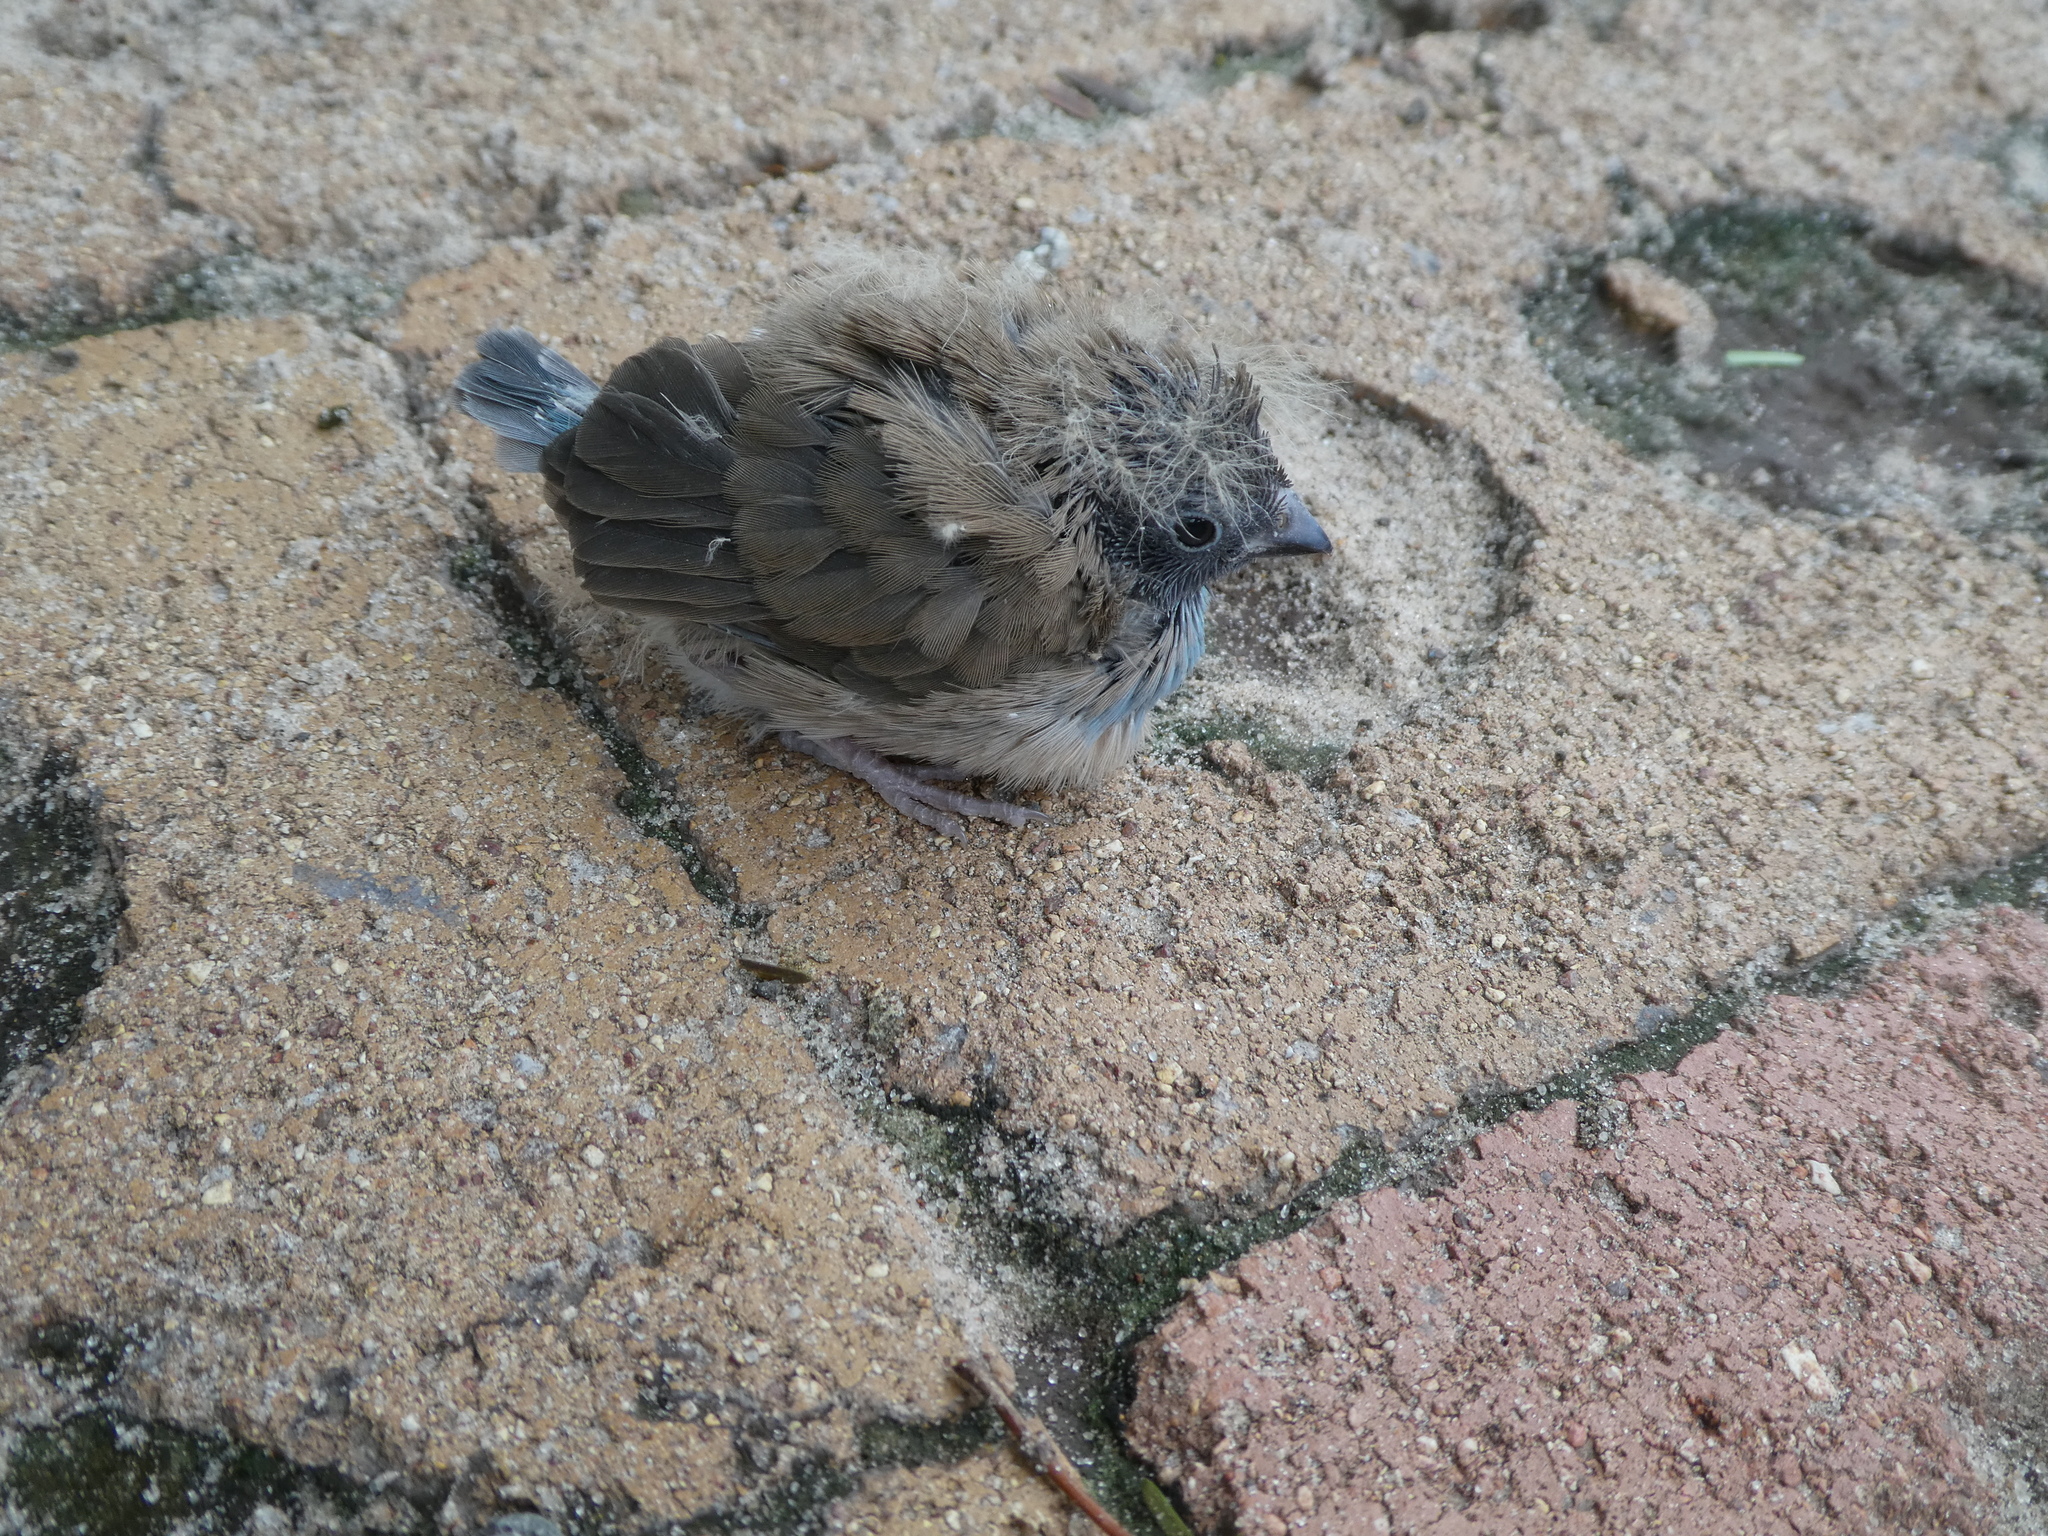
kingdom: Animalia
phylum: Chordata
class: Aves
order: Passeriformes
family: Estrildidae
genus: Uraeginthus
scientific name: Uraeginthus angolensis
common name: Blue waxbill
